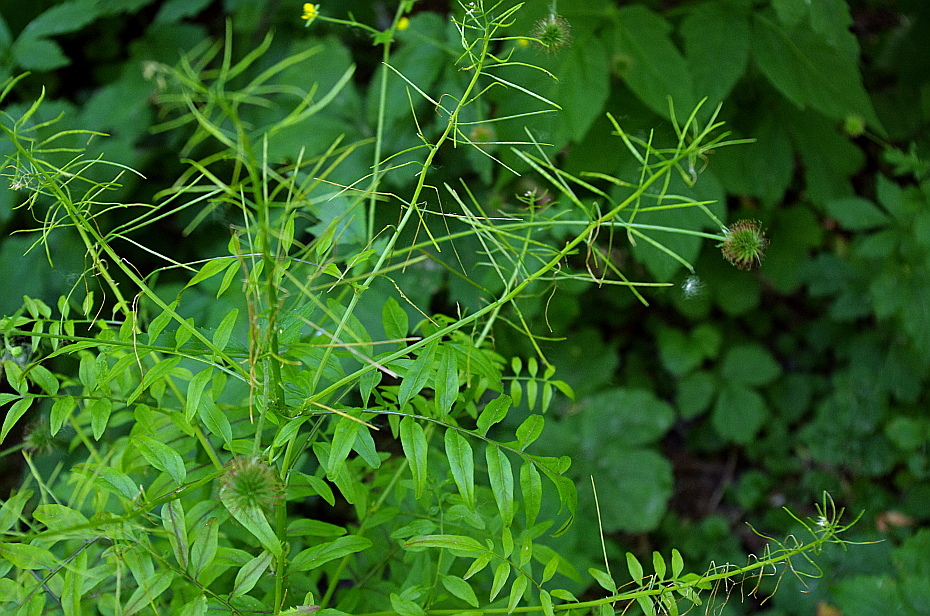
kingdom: Plantae
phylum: Tracheophyta
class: Magnoliopsida
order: Brassicales
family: Brassicaceae
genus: Cardamine
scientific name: Cardamine impatiens
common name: Narrow-leaved bitter-cress
